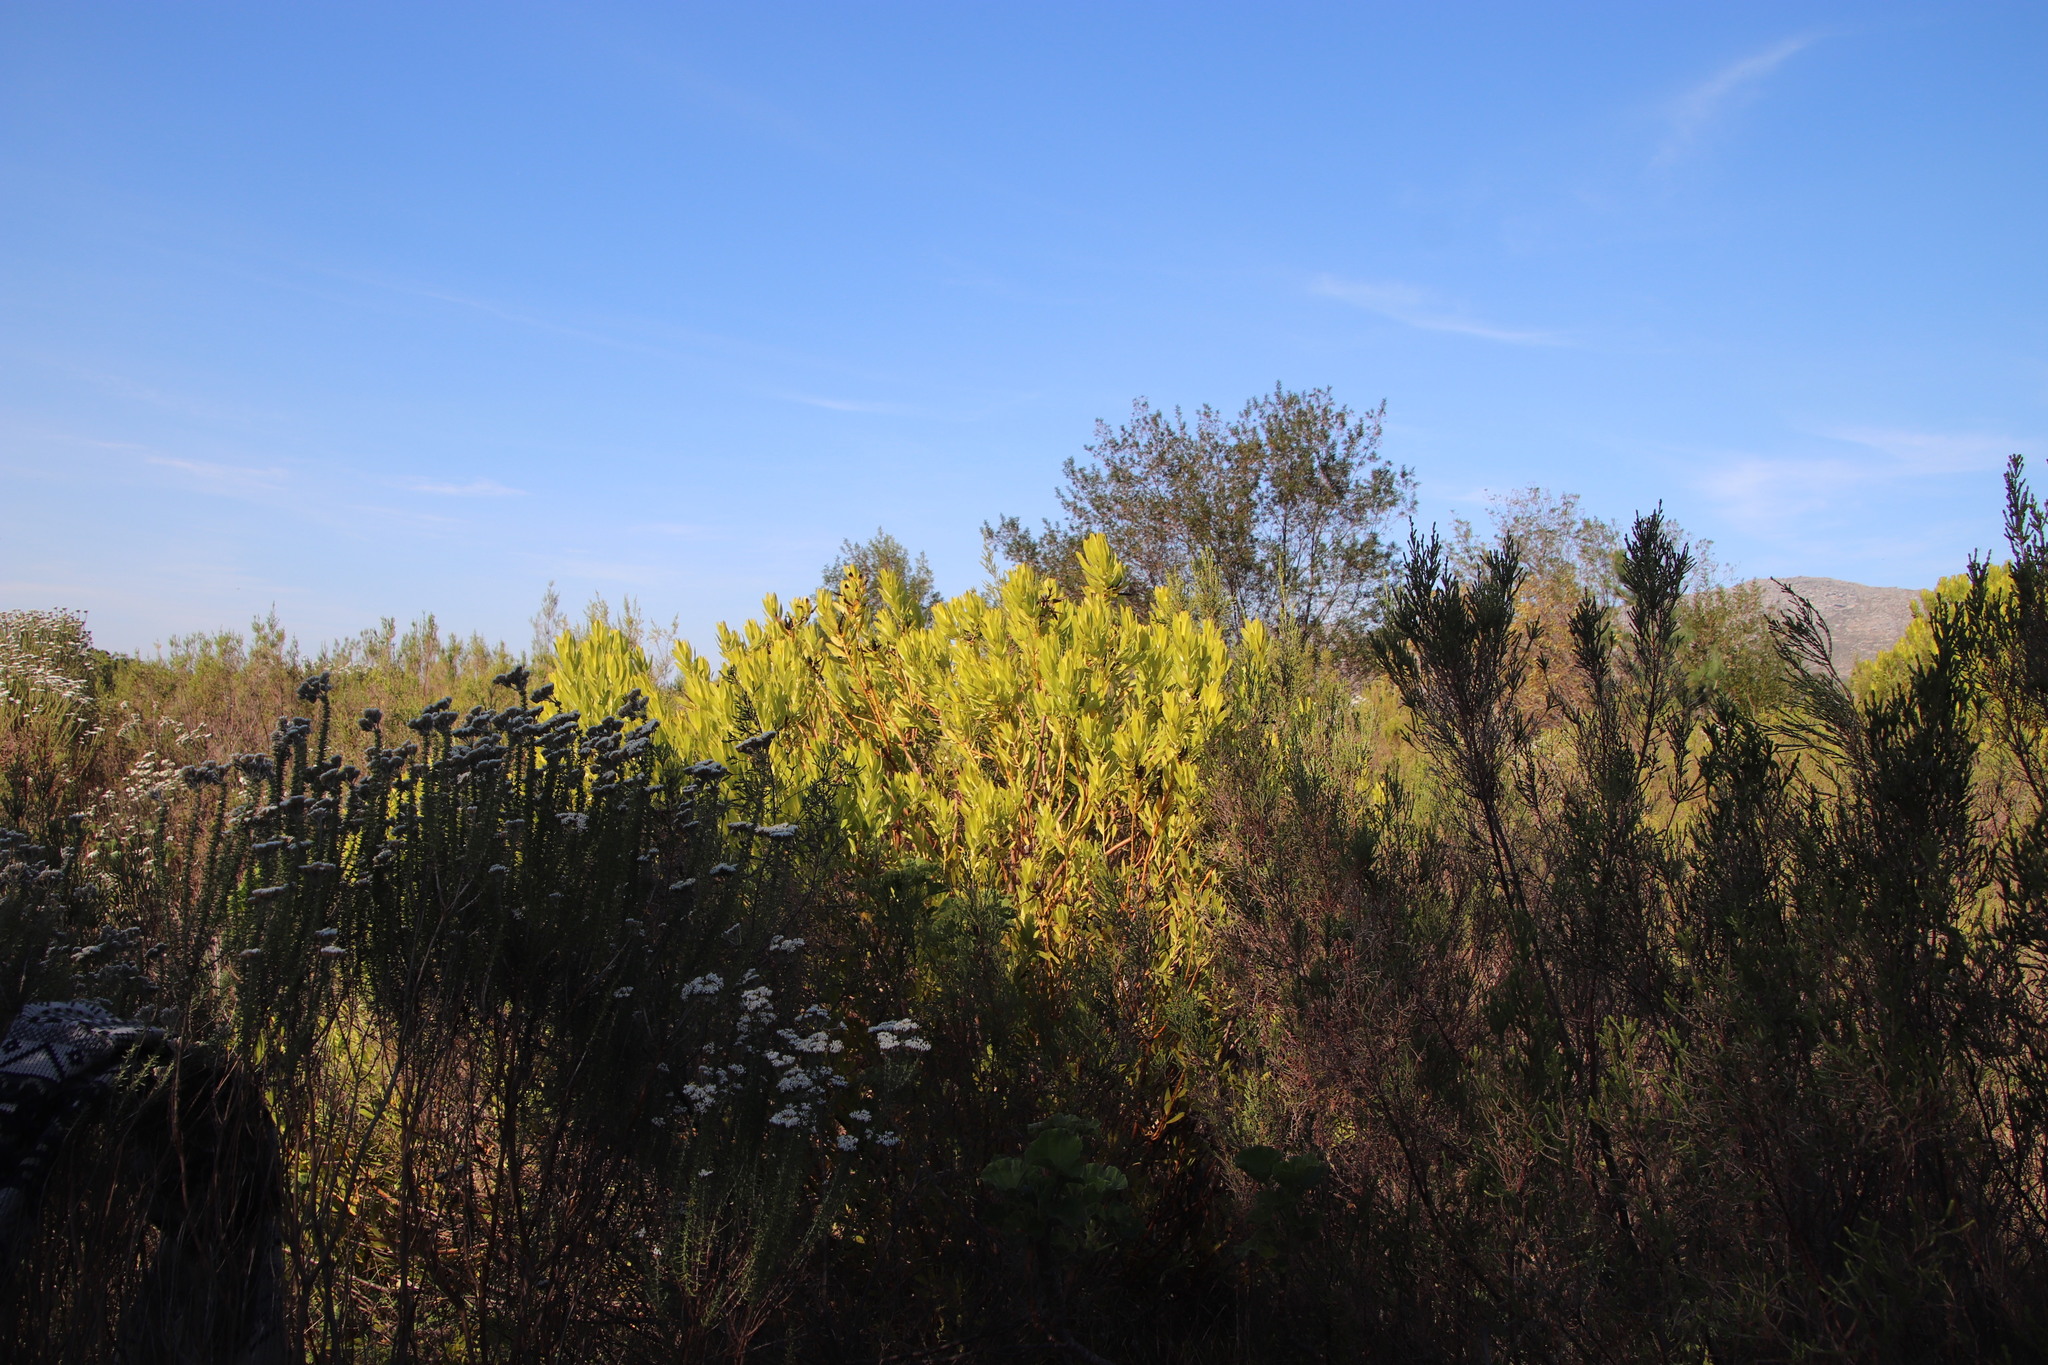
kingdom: Plantae
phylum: Tracheophyta
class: Magnoliopsida
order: Proteales
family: Proteaceae
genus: Leucadendron
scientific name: Leucadendron laureolum
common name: Golden sunshinebush
